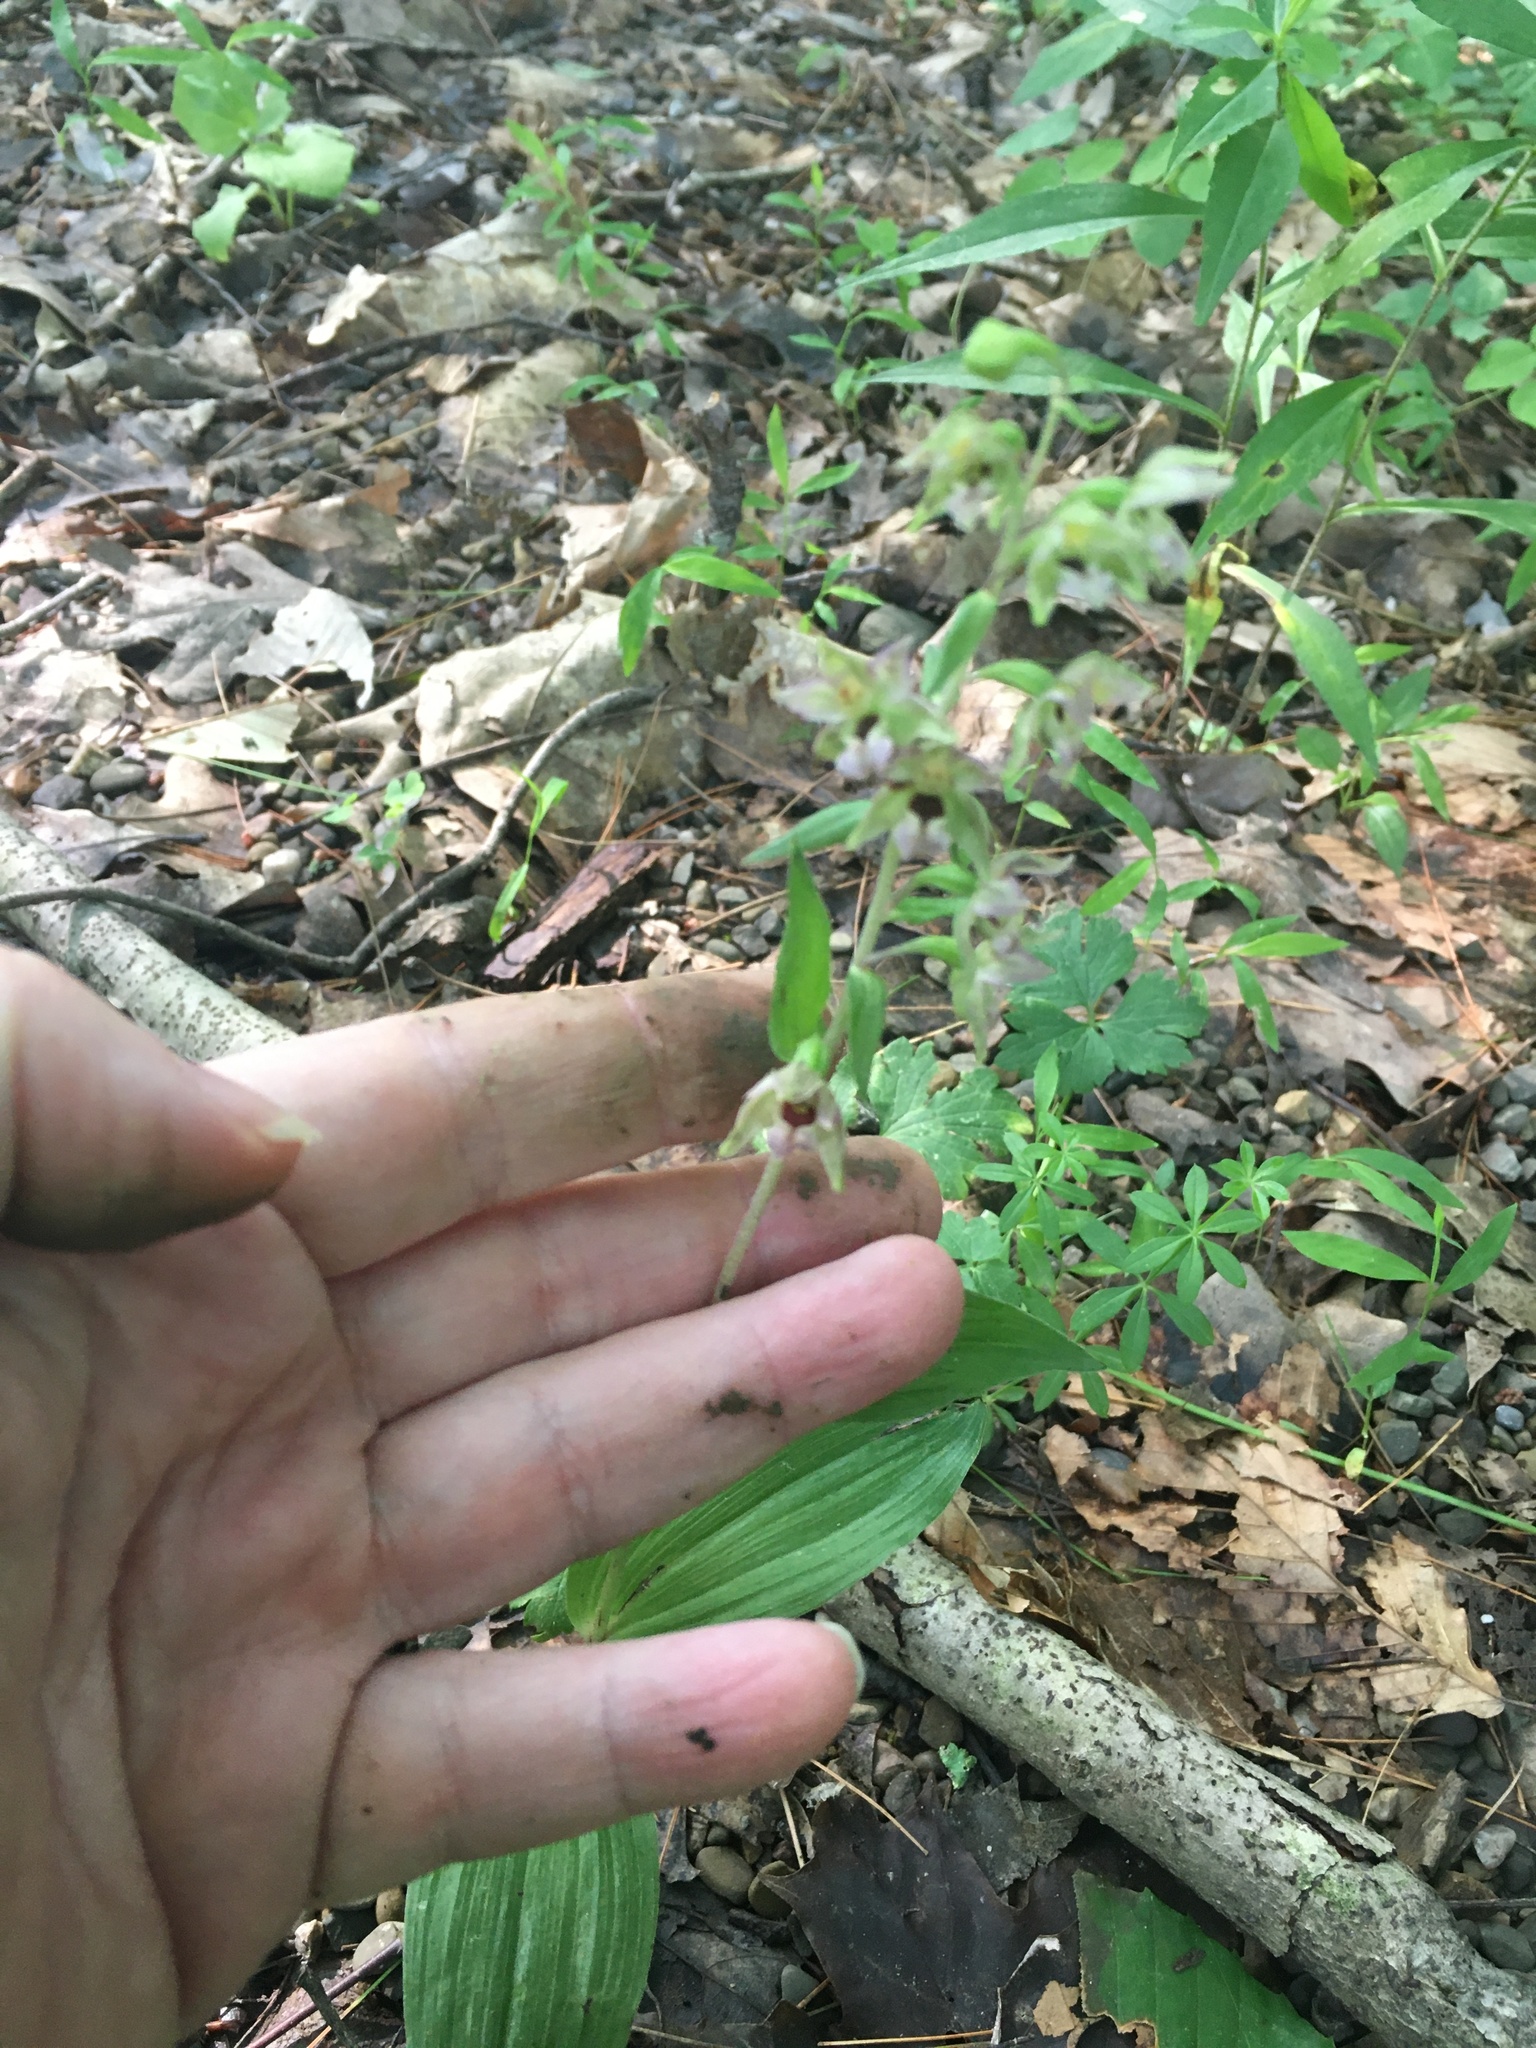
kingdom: Plantae
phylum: Tracheophyta
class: Liliopsida
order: Asparagales
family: Orchidaceae
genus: Epipactis
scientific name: Epipactis helleborine
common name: Broad-leaved helleborine
